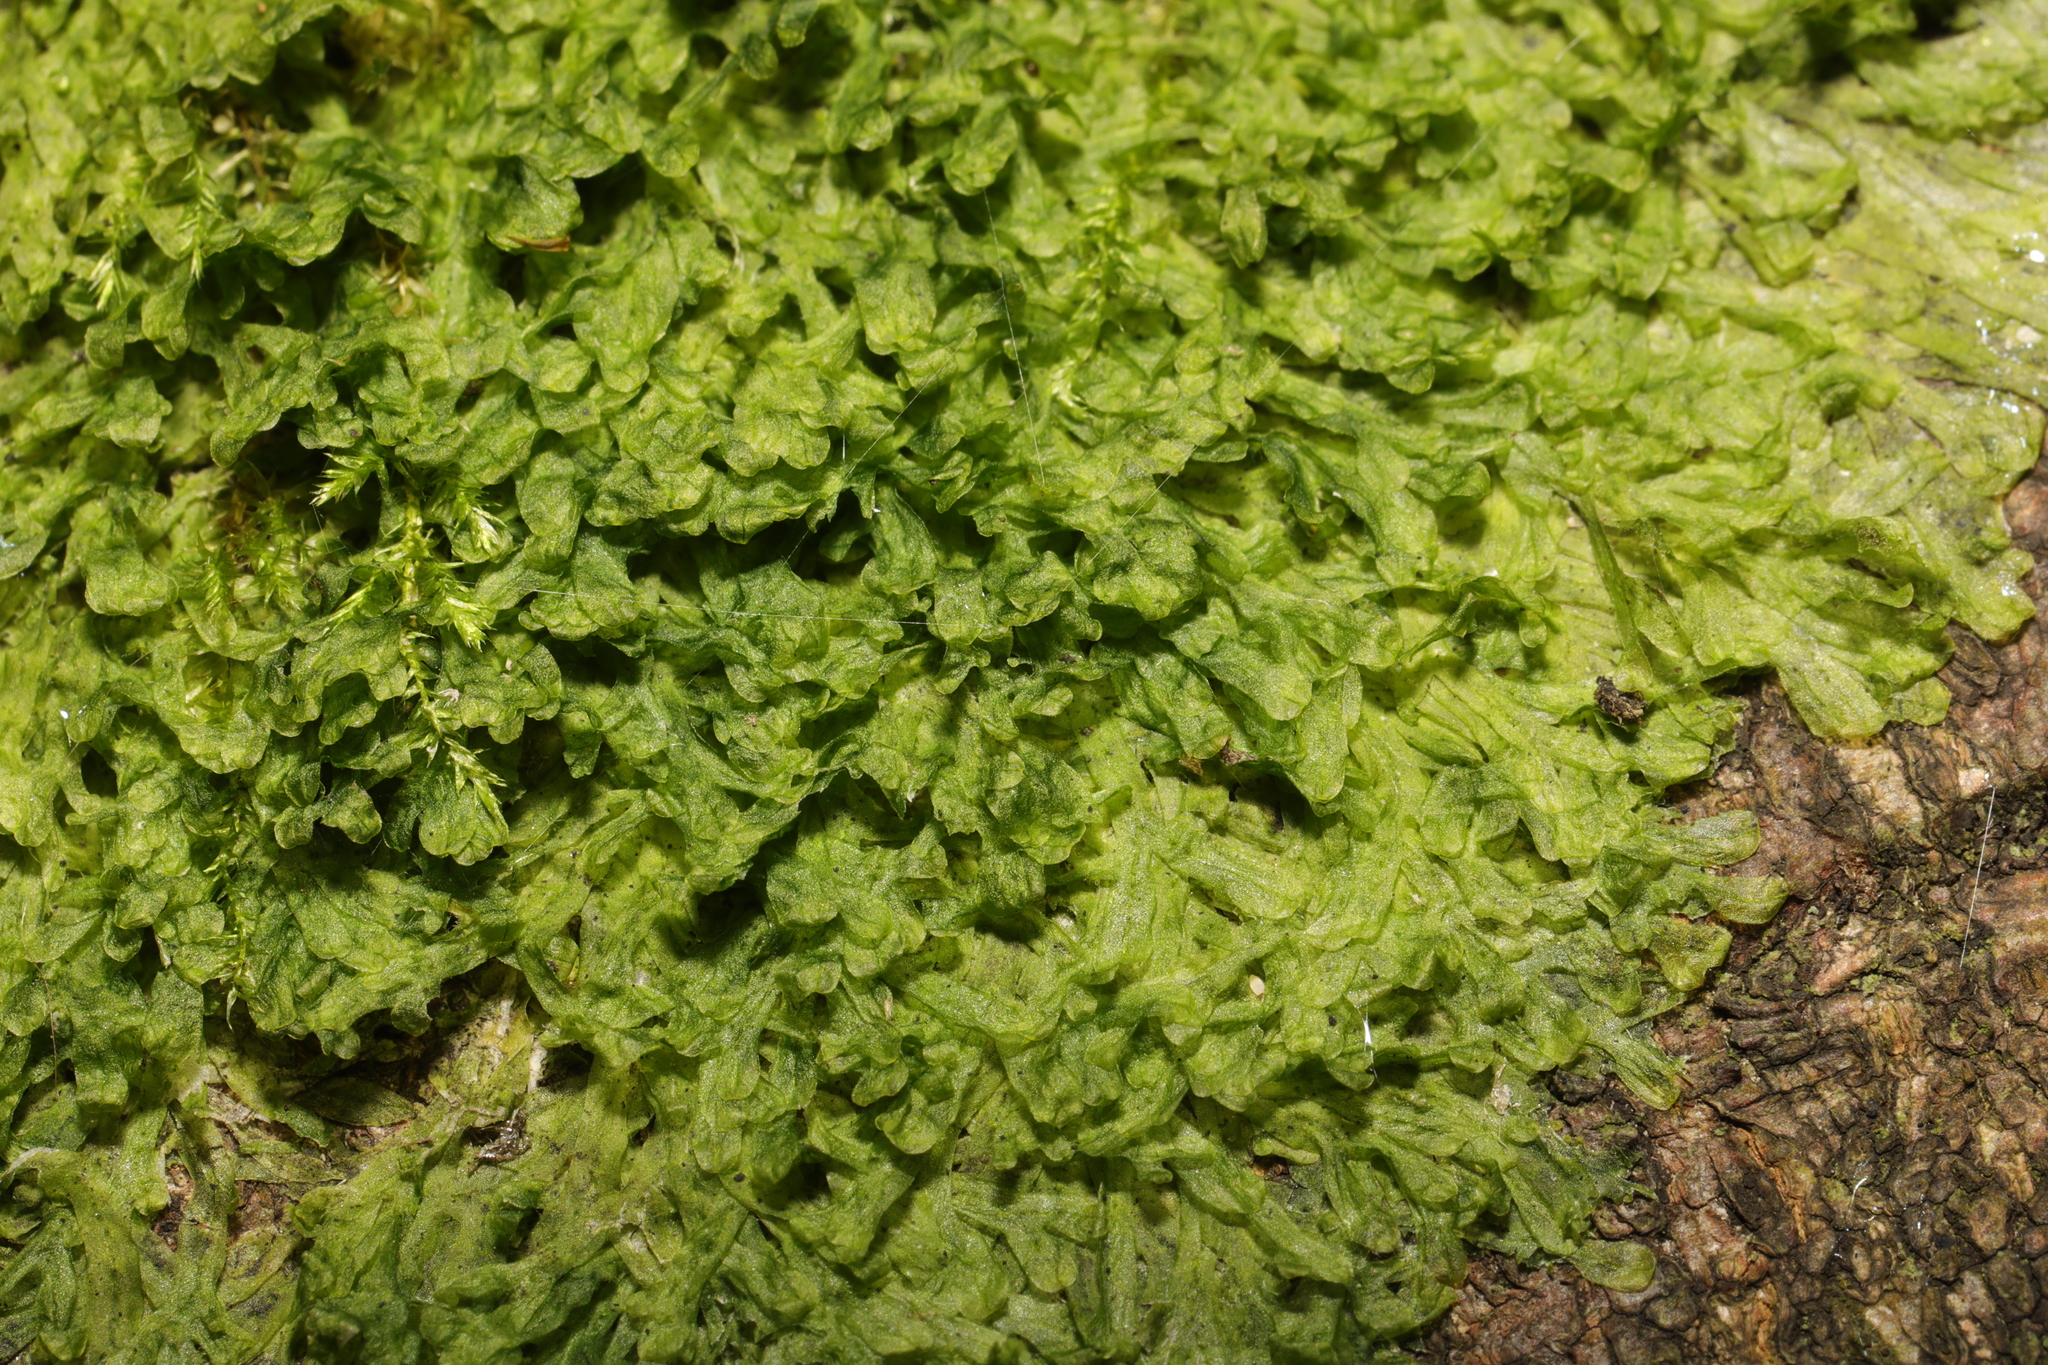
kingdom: Plantae
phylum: Marchantiophyta
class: Jungermanniopsida
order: Metzgeriales
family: Metzgeriaceae
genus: Metzgeria
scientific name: Metzgeria furcata
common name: Forked veilwort
